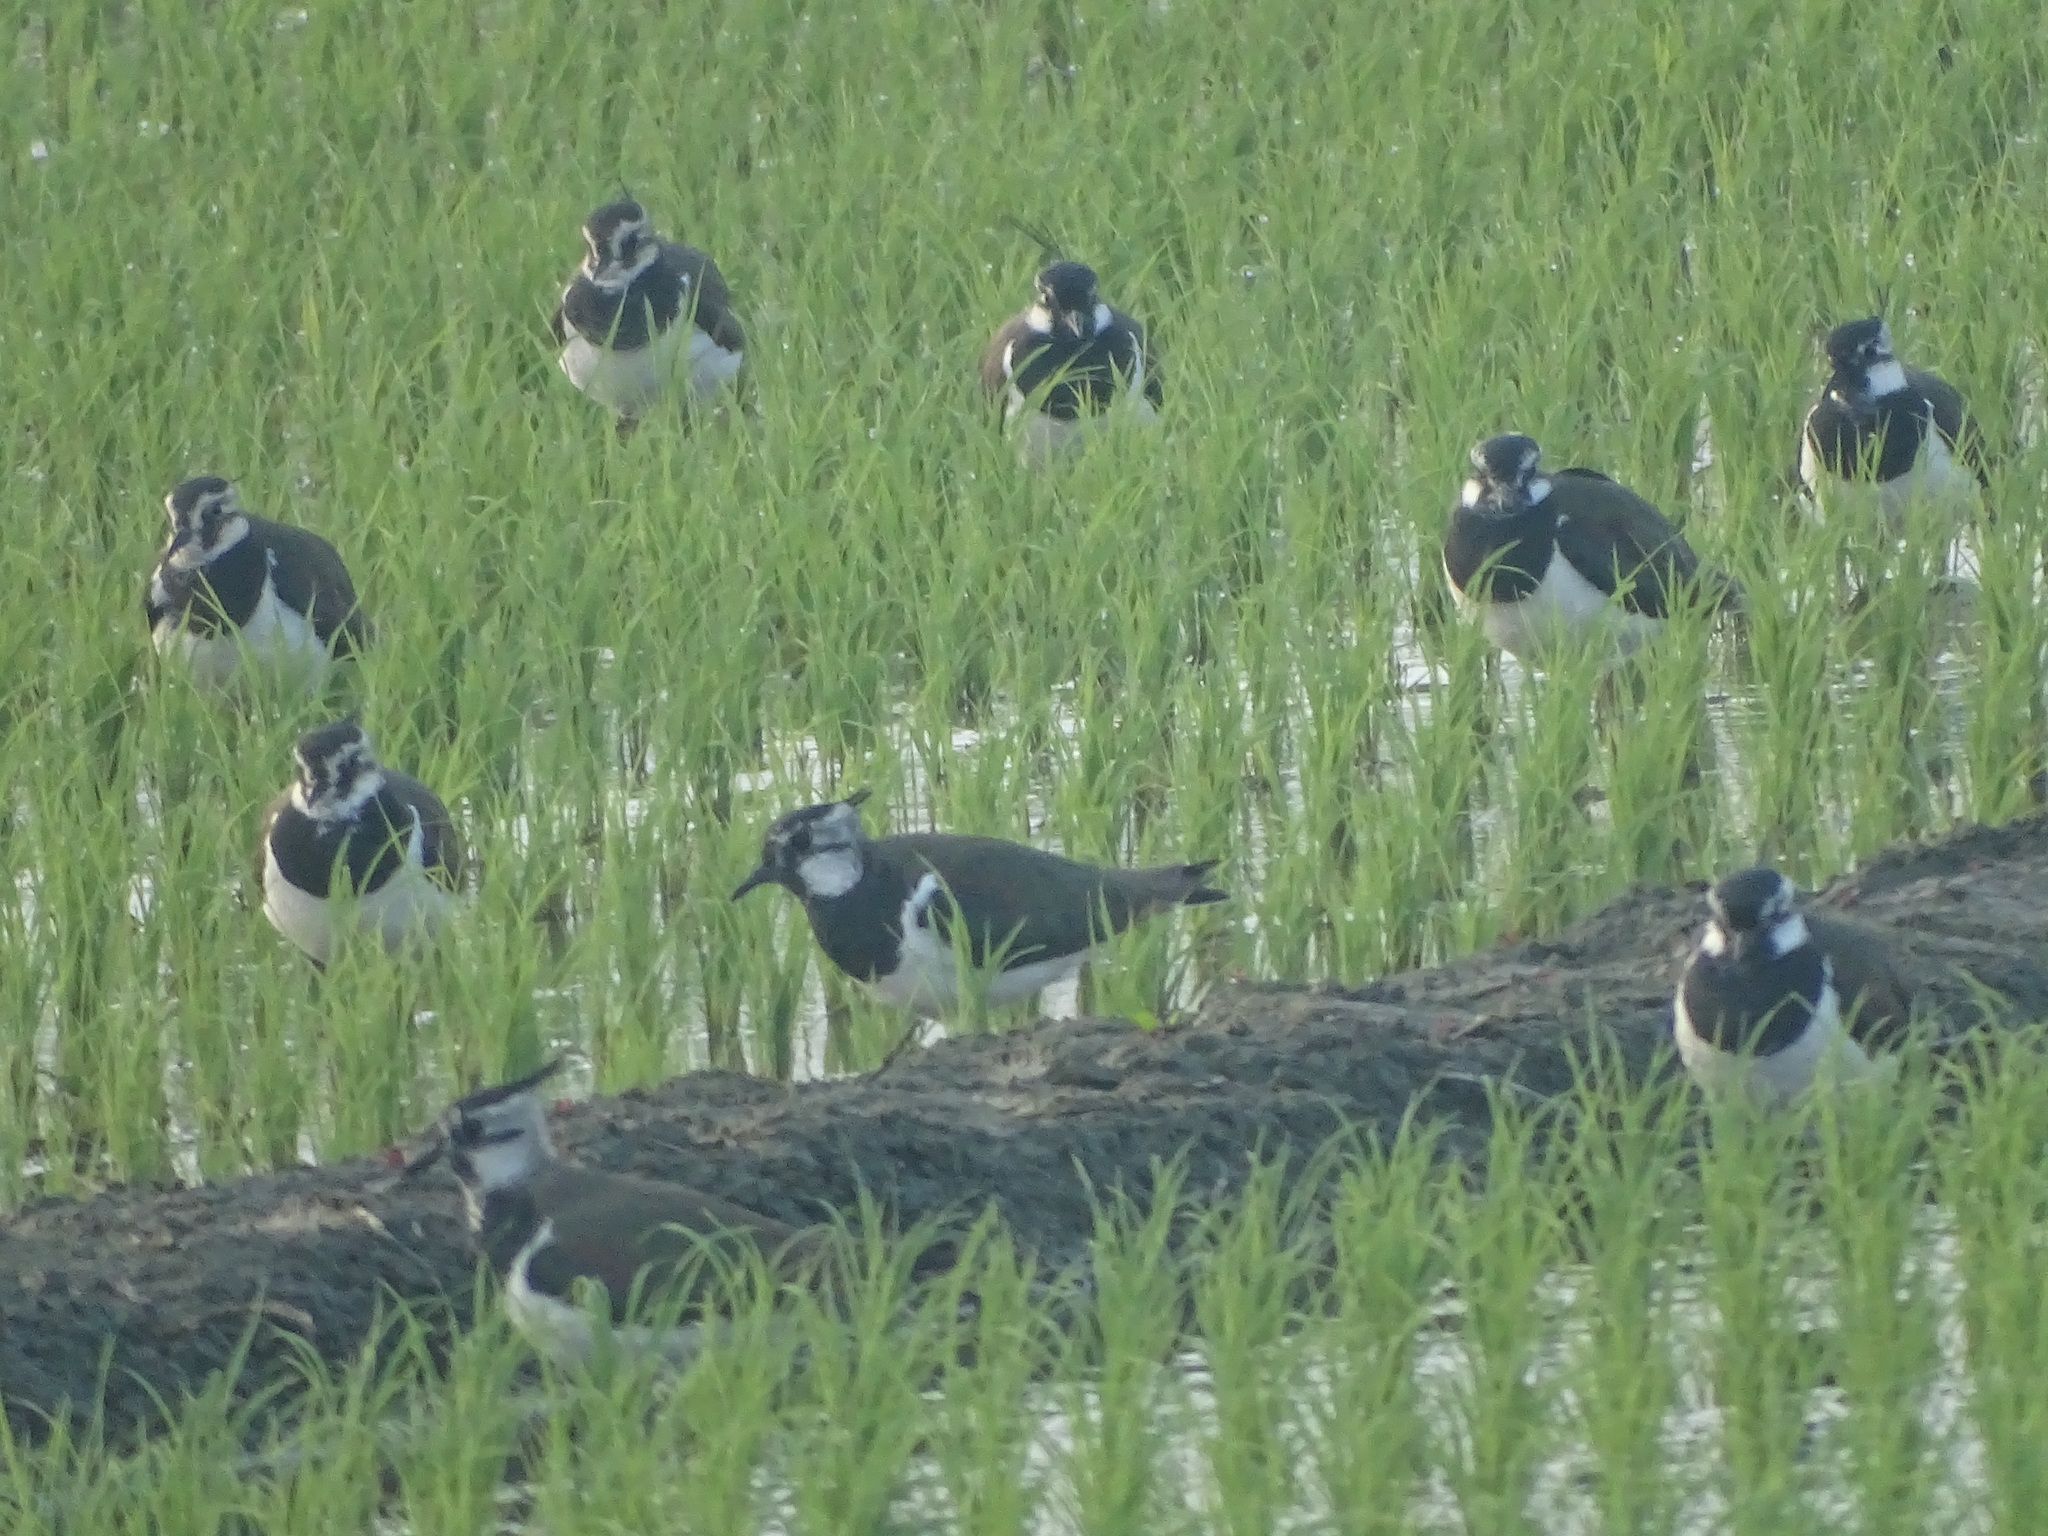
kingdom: Animalia
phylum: Chordata
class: Aves
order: Charadriiformes
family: Charadriidae
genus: Vanellus
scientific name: Vanellus vanellus
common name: Northern lapwing
